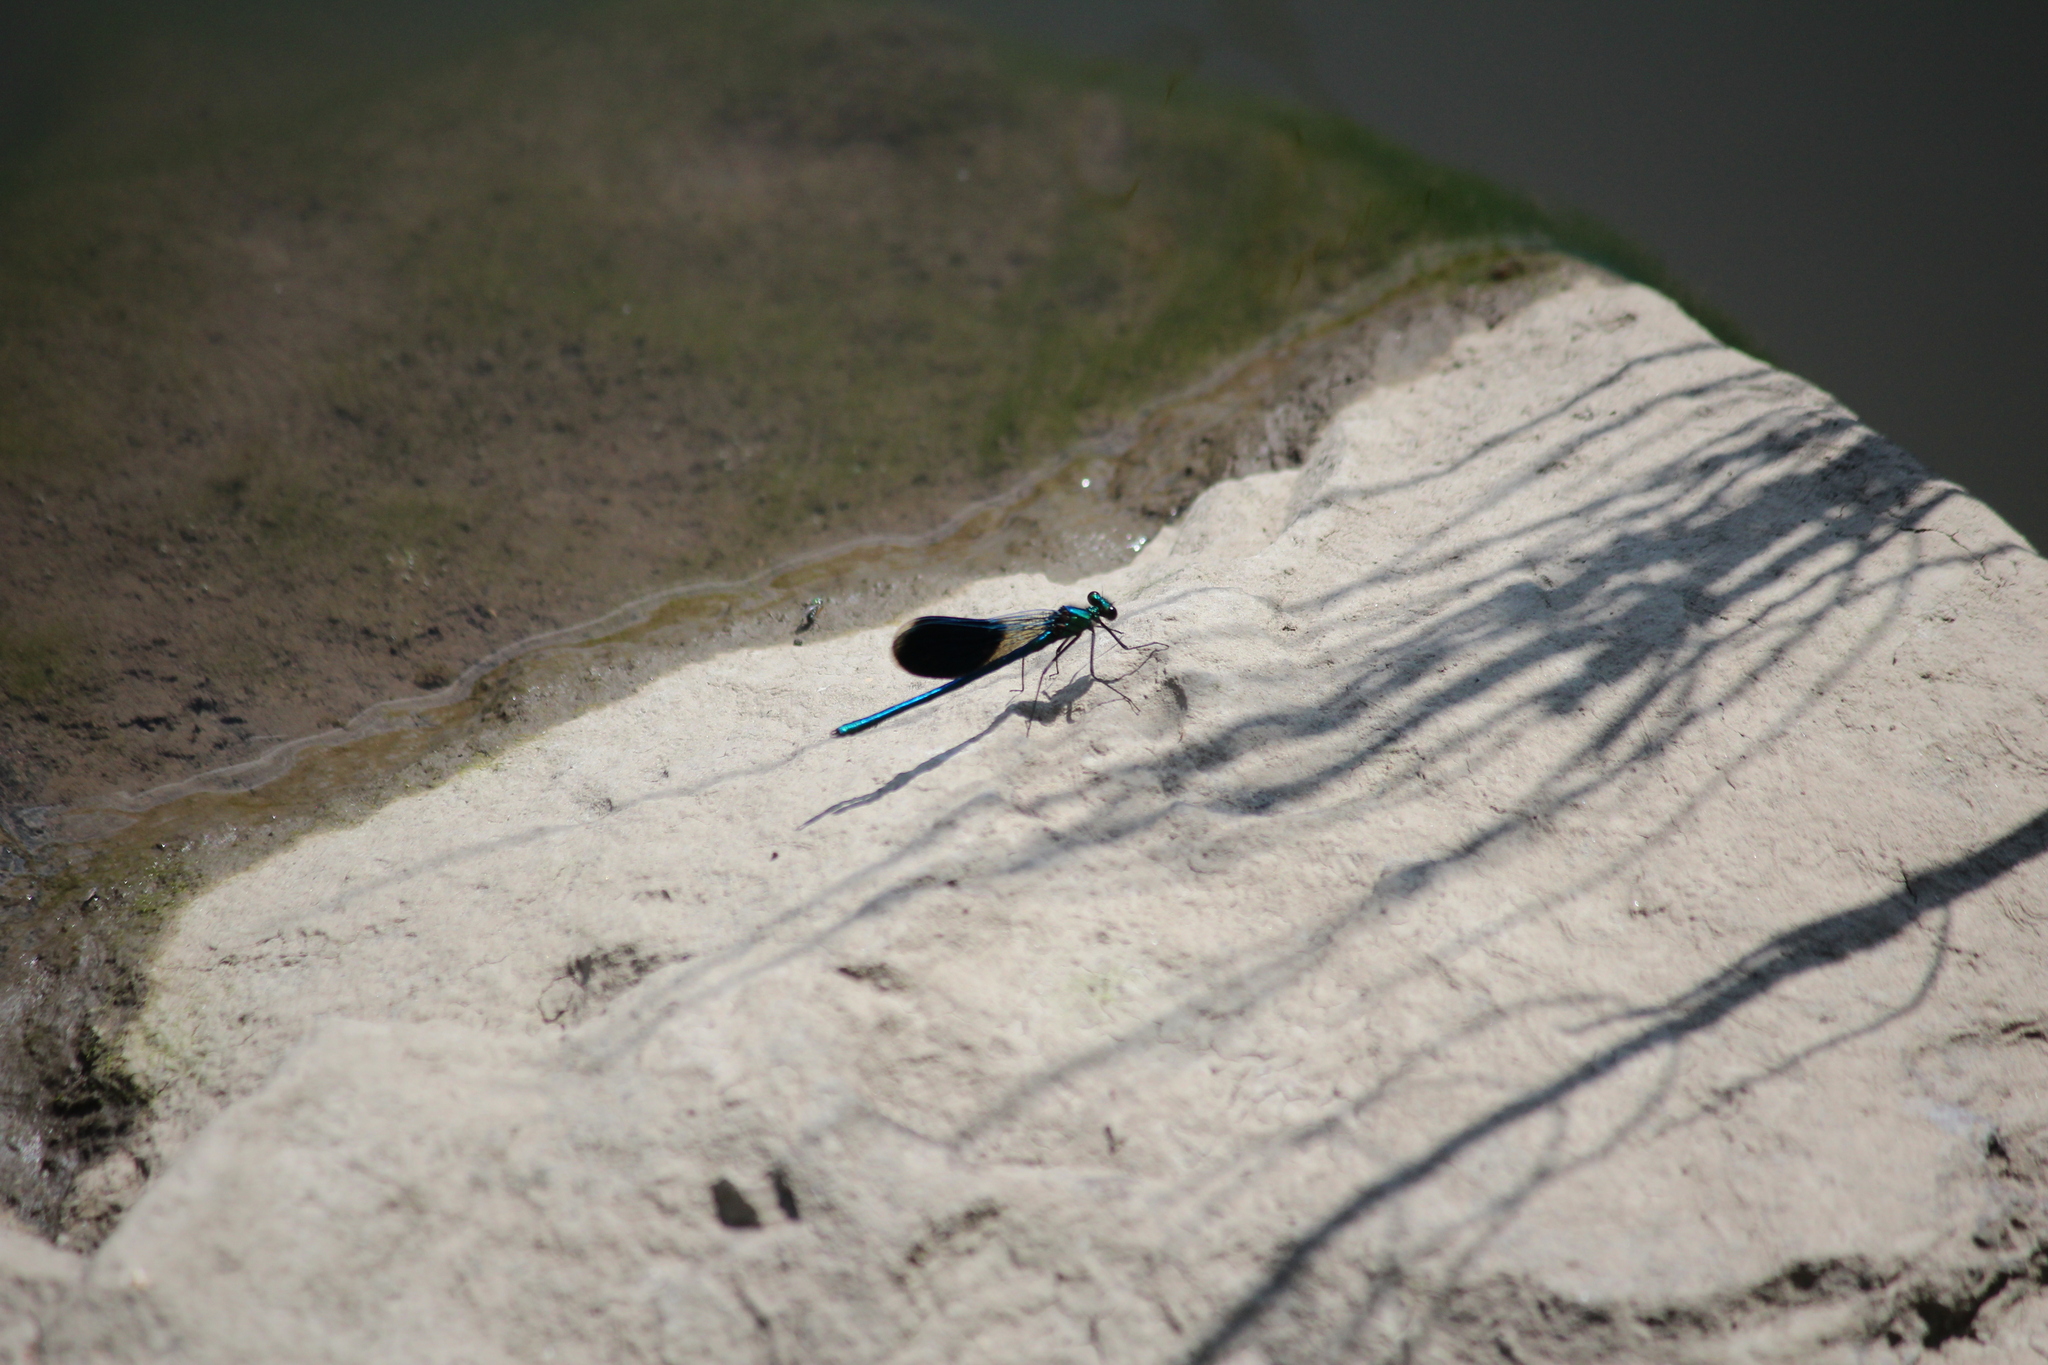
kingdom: Animalia
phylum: Arthropoda
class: Insecta
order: Odonata
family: Calopterygidae
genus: Calopteryx
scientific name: Calopteryx splendens
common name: Banded demoiselle
